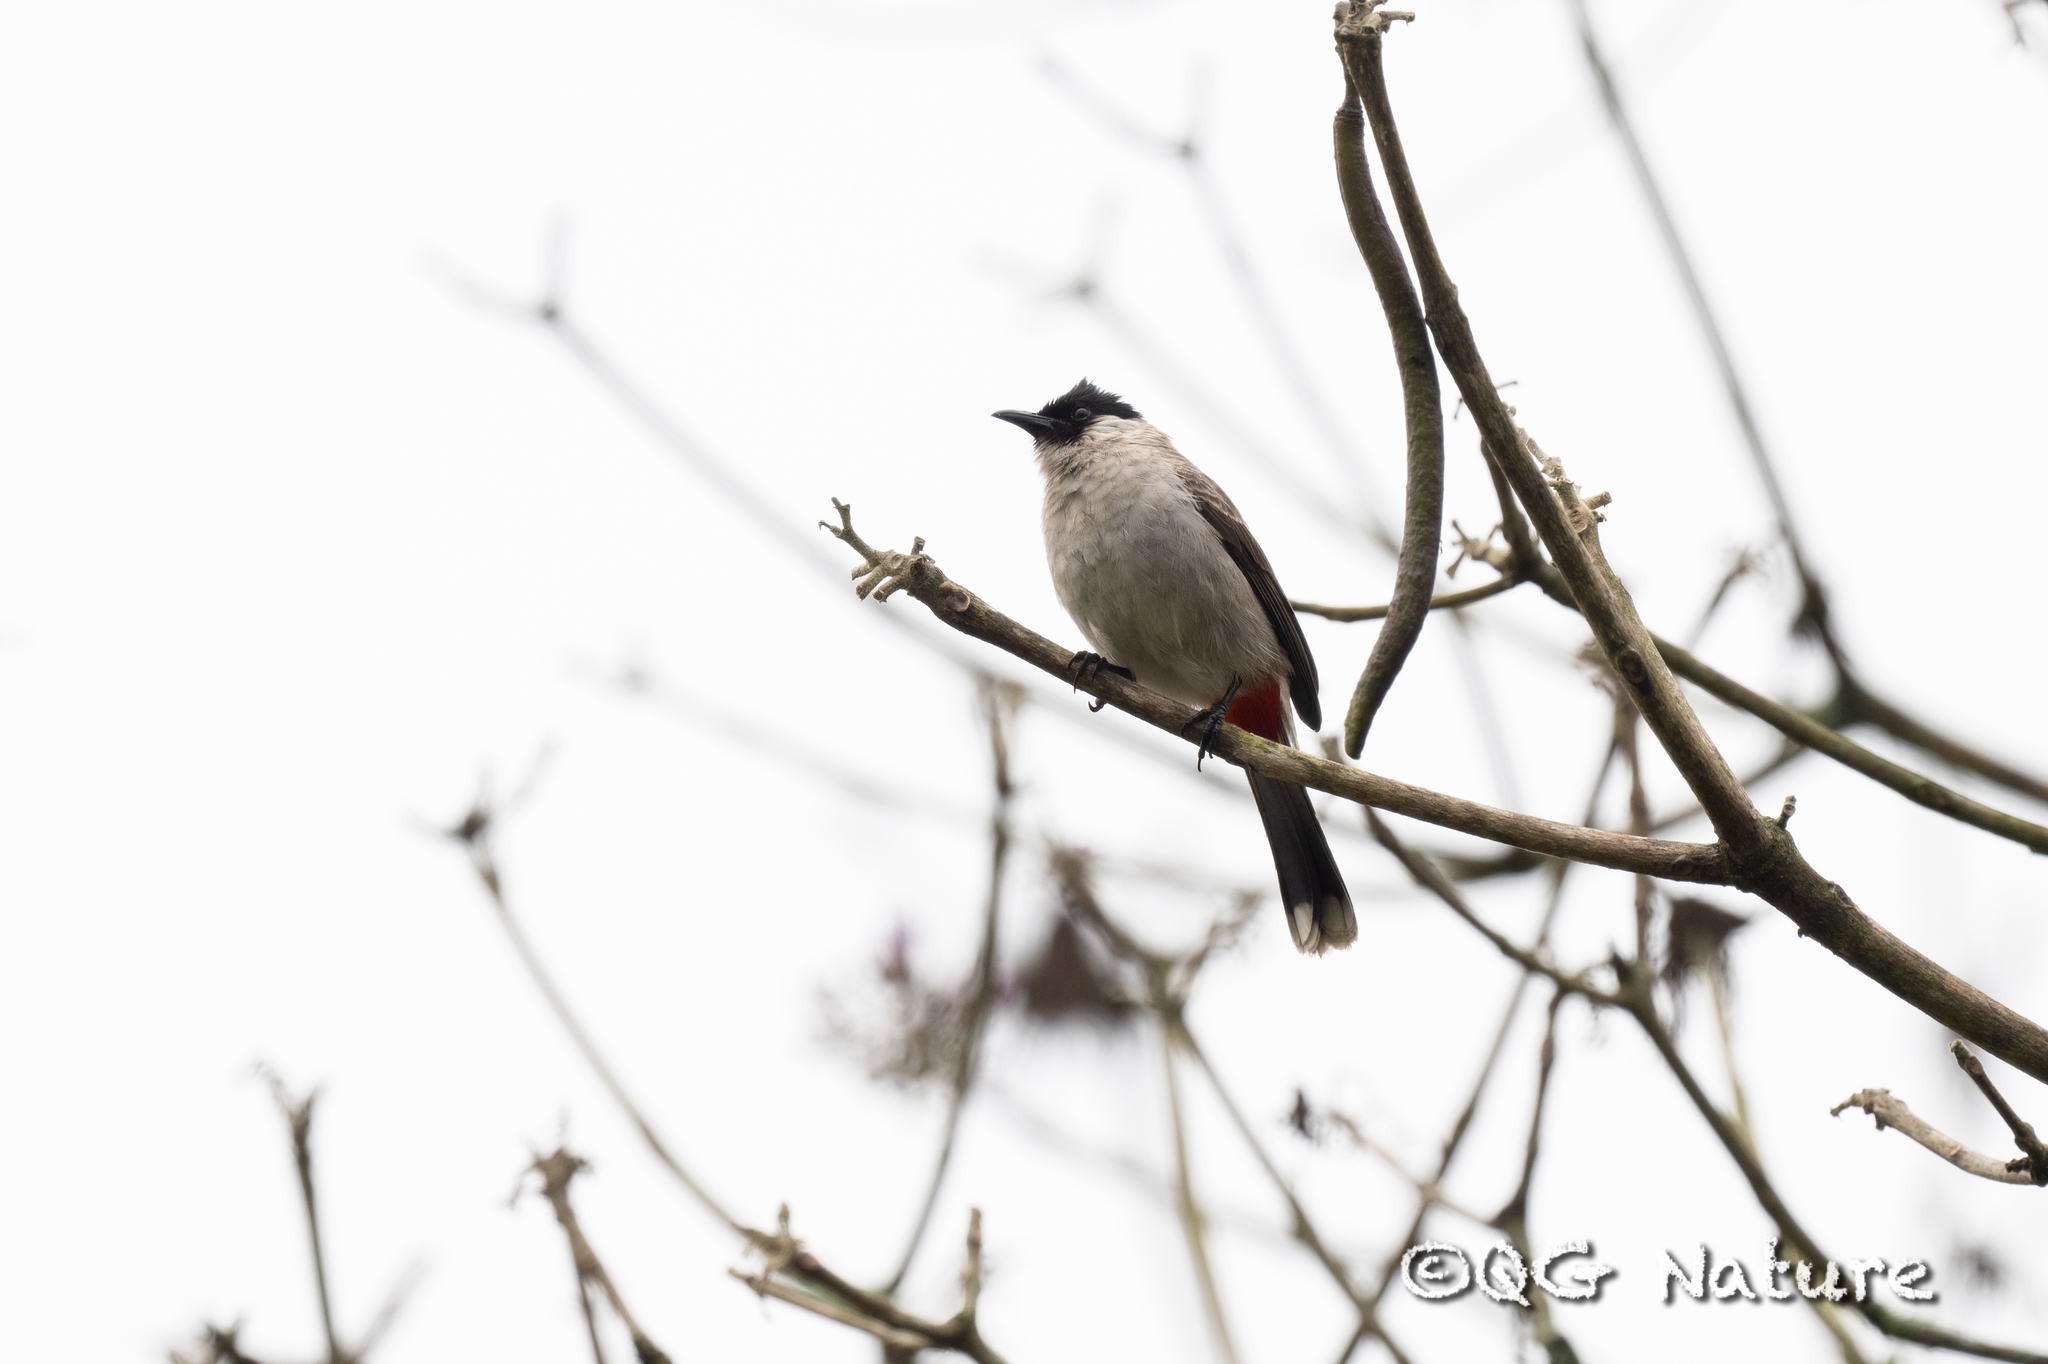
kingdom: Animalia
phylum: Chordata
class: Aves
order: Passeriformes
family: Pycnonotidae
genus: Pycnonotus
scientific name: Pycnonotus aurigaster
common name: Sooty-headed bulbul
